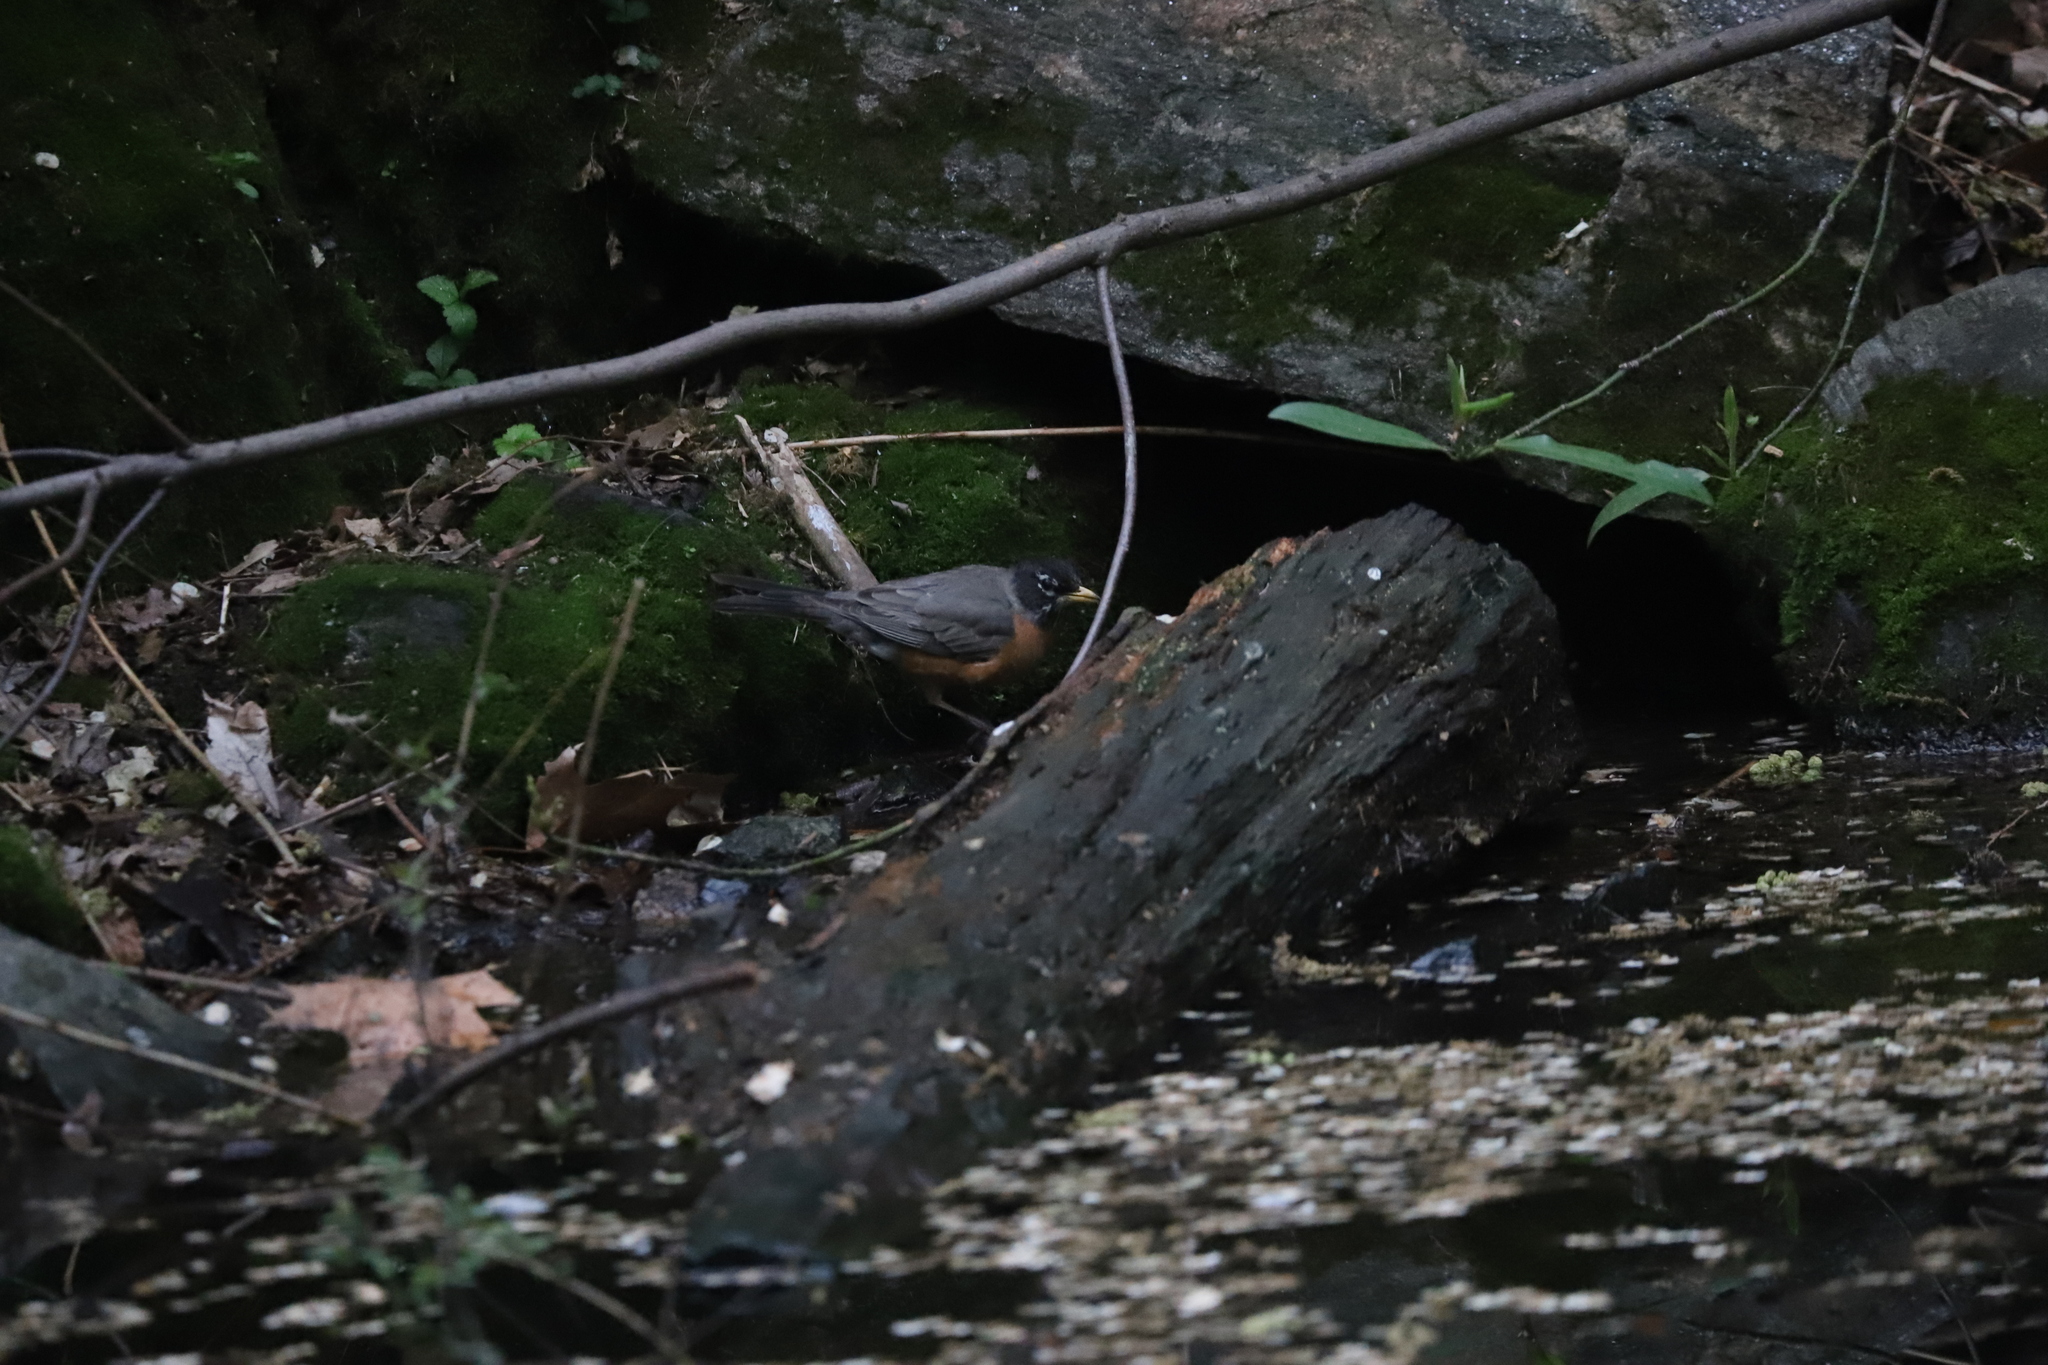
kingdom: Animalia
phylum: Chordata
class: Aves
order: Passeriformes
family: Turdidae
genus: Turdus
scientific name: Turdus migratorius
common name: American robin
